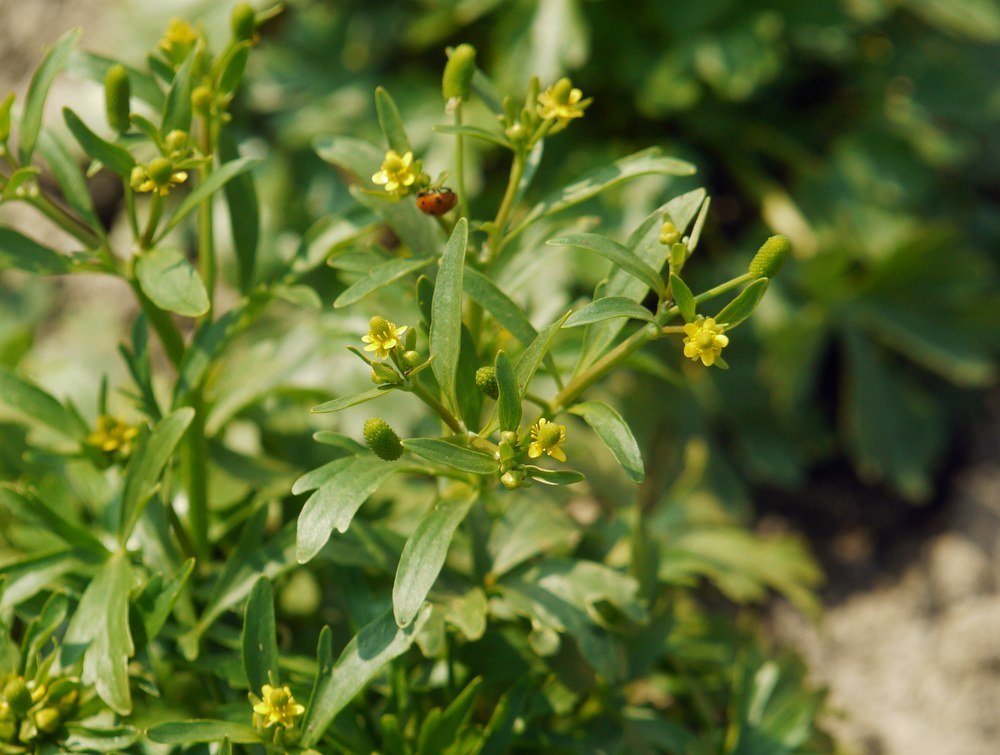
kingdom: Plantae
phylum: Tracheophyta
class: Magnoliopsida
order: Ranunculales
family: Ranunculaceae
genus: Ranunculus
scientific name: Ranunculus sceleratus
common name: Celery-leaved buttercup
